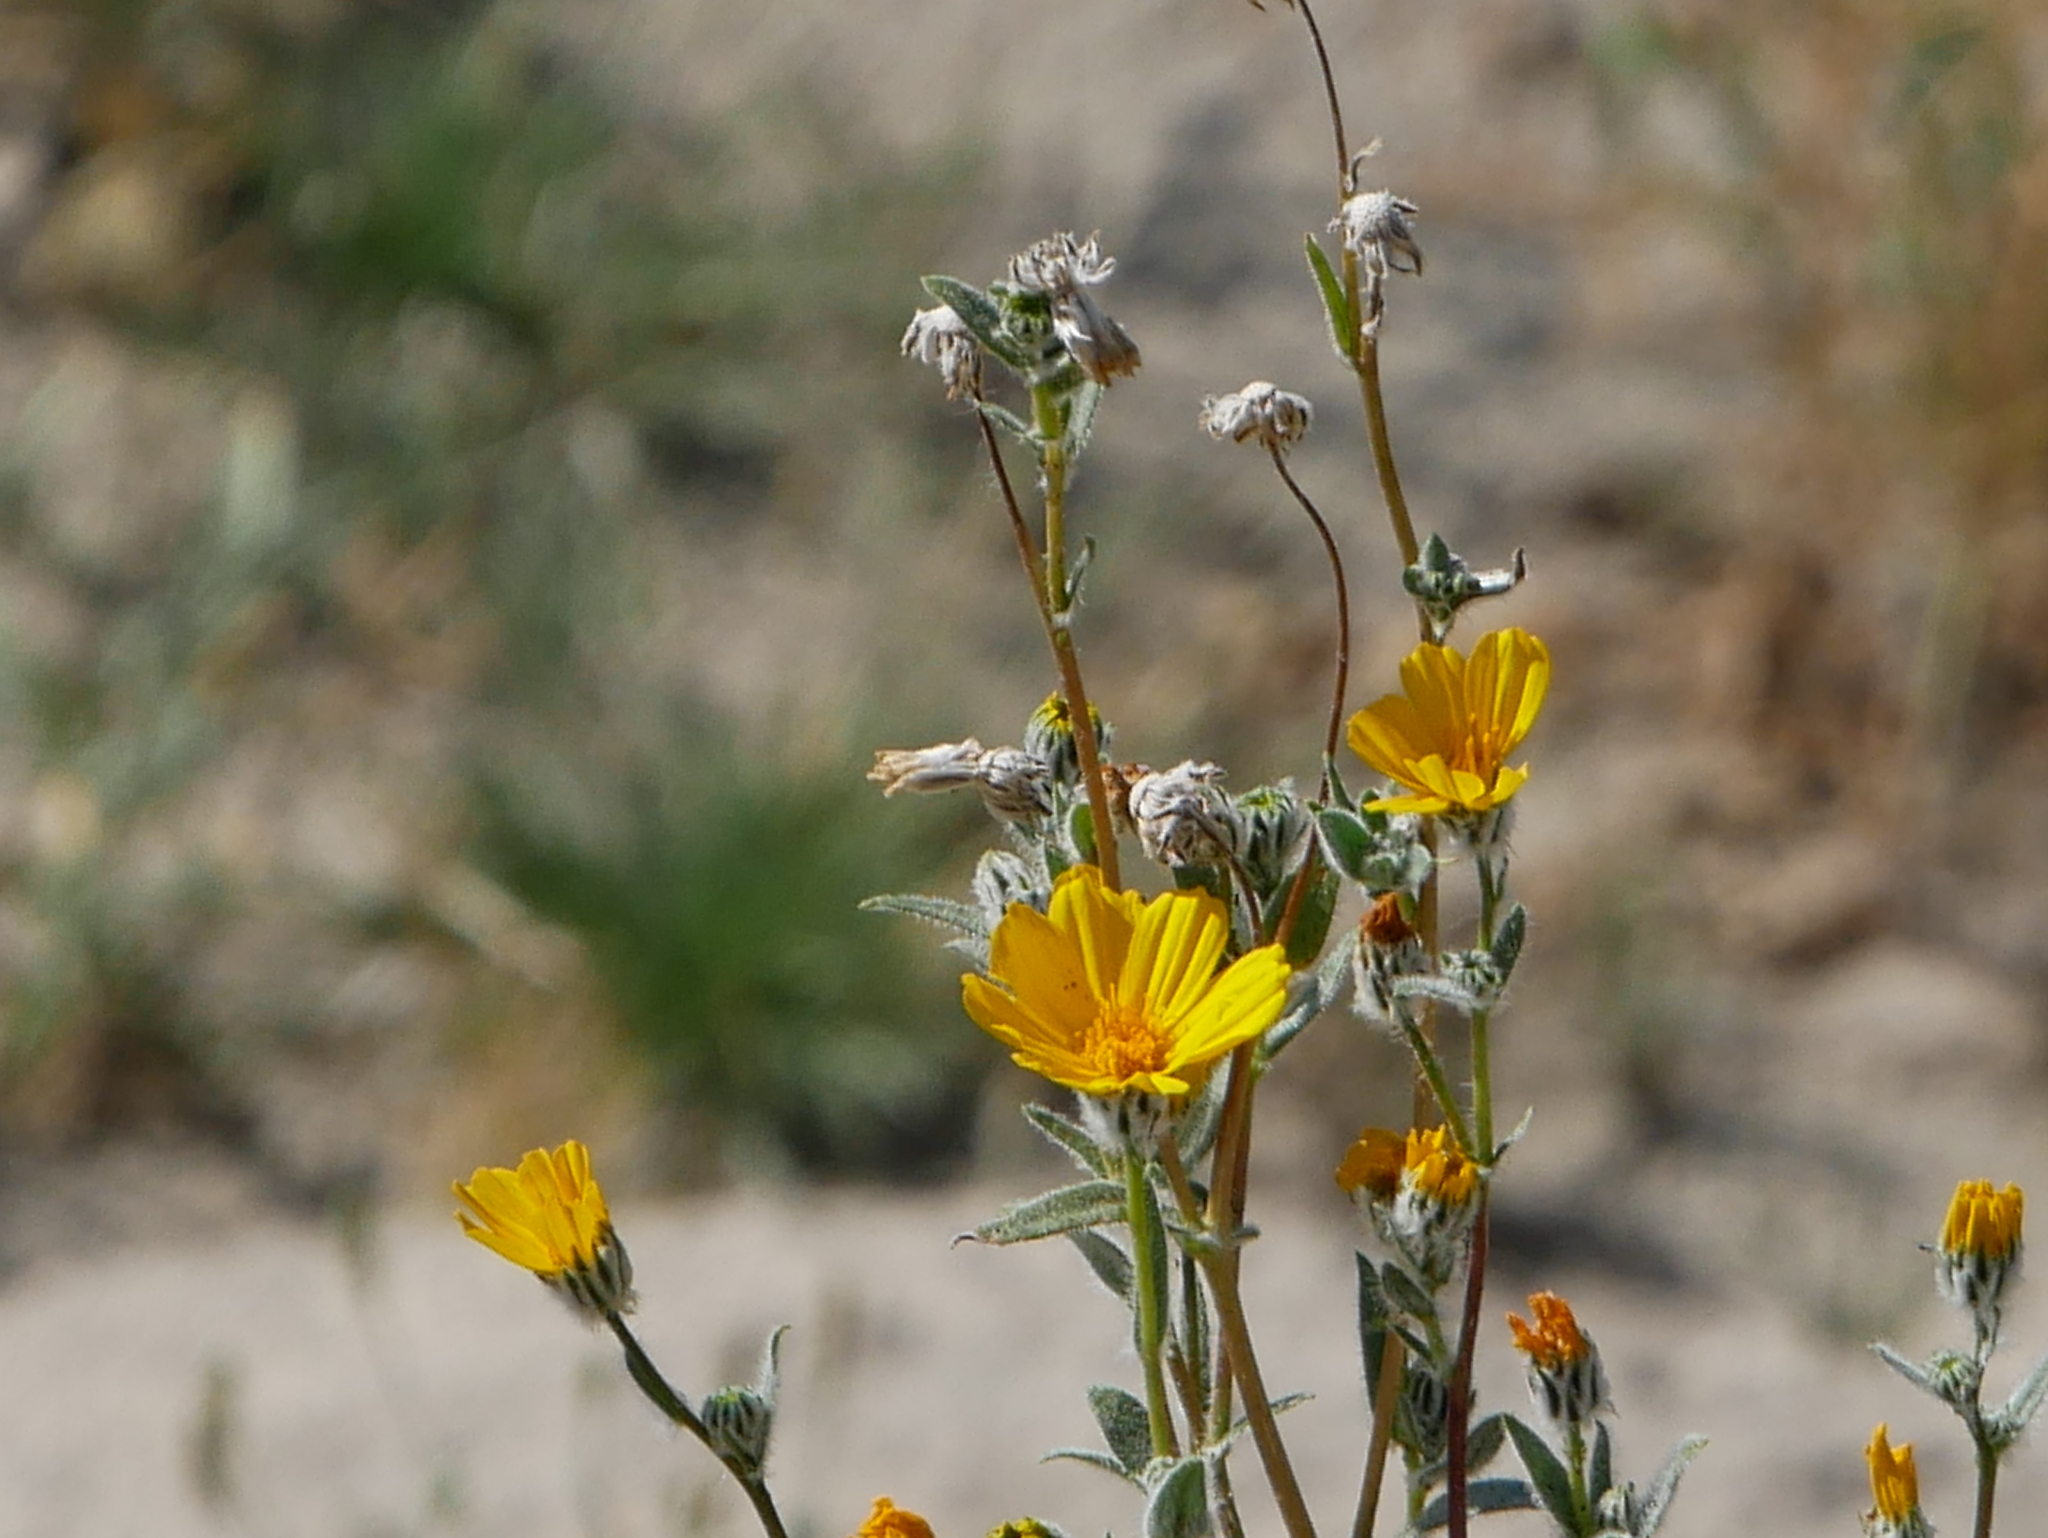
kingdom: Plantae
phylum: Tracheophyta
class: Magnoliopsida
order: Asterales
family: Asteraceae
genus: Geraea
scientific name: Geraea canescens
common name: Desert-gold
